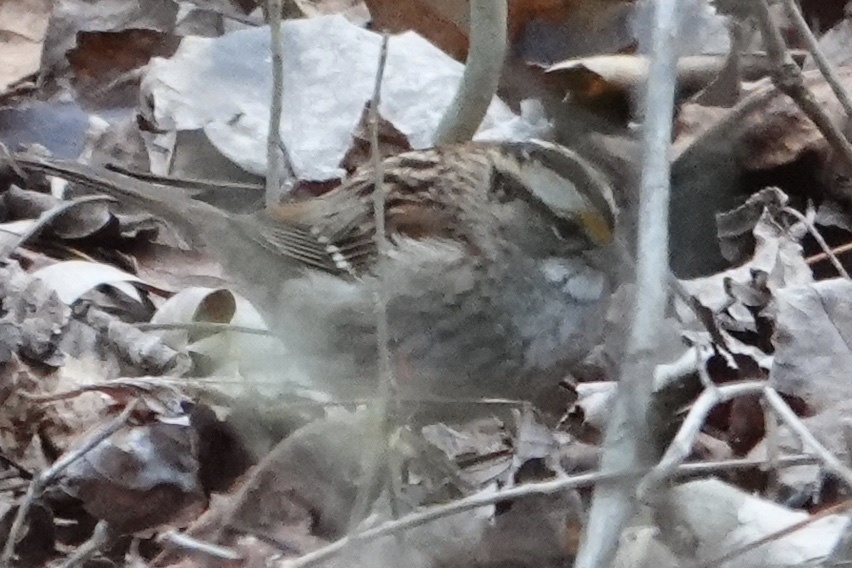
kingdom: Animalia
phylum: Chordata
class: Aves
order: Passeriformes
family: Passerellidae
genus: Zonotrichia
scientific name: Zonotrichia albicollis
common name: White-throated sparrow
